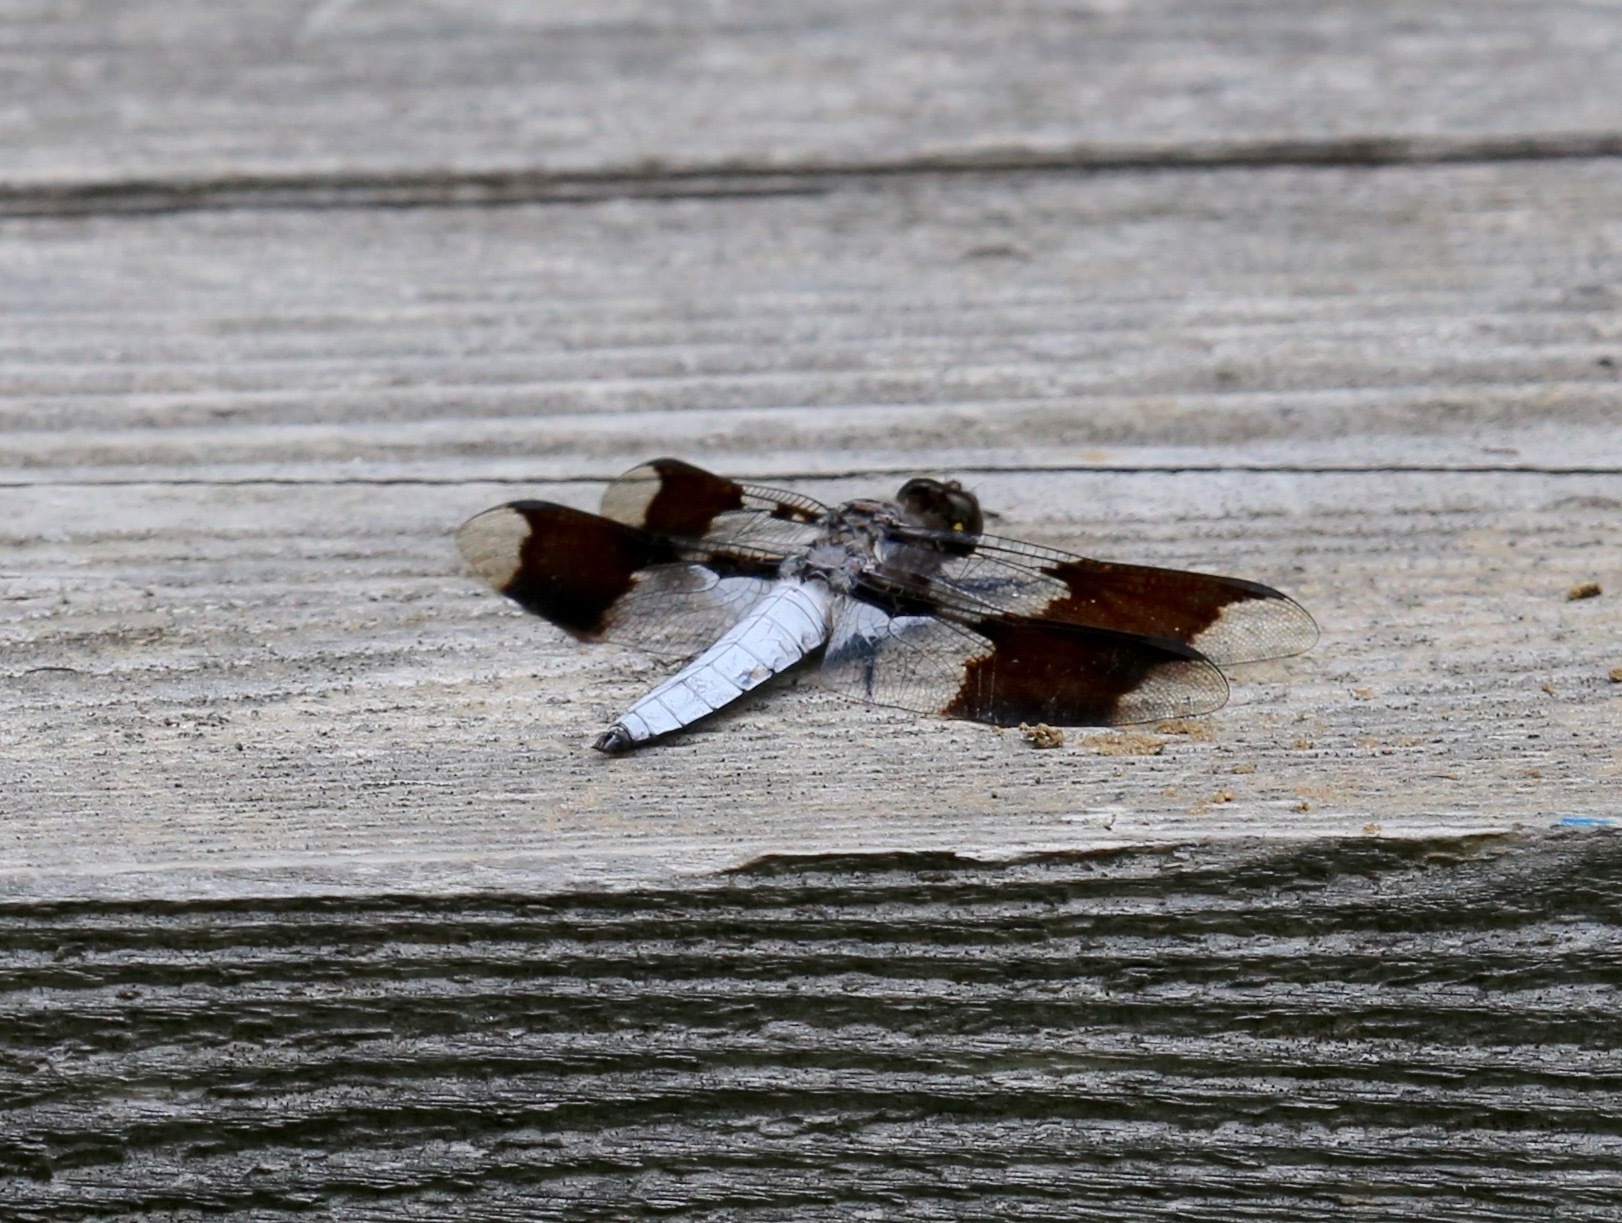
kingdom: Animalia
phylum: Arthropoda
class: Insecta
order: Odonata
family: Libellulidae
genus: Plathemis
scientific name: Plathemis lydia
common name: Common whitetail
